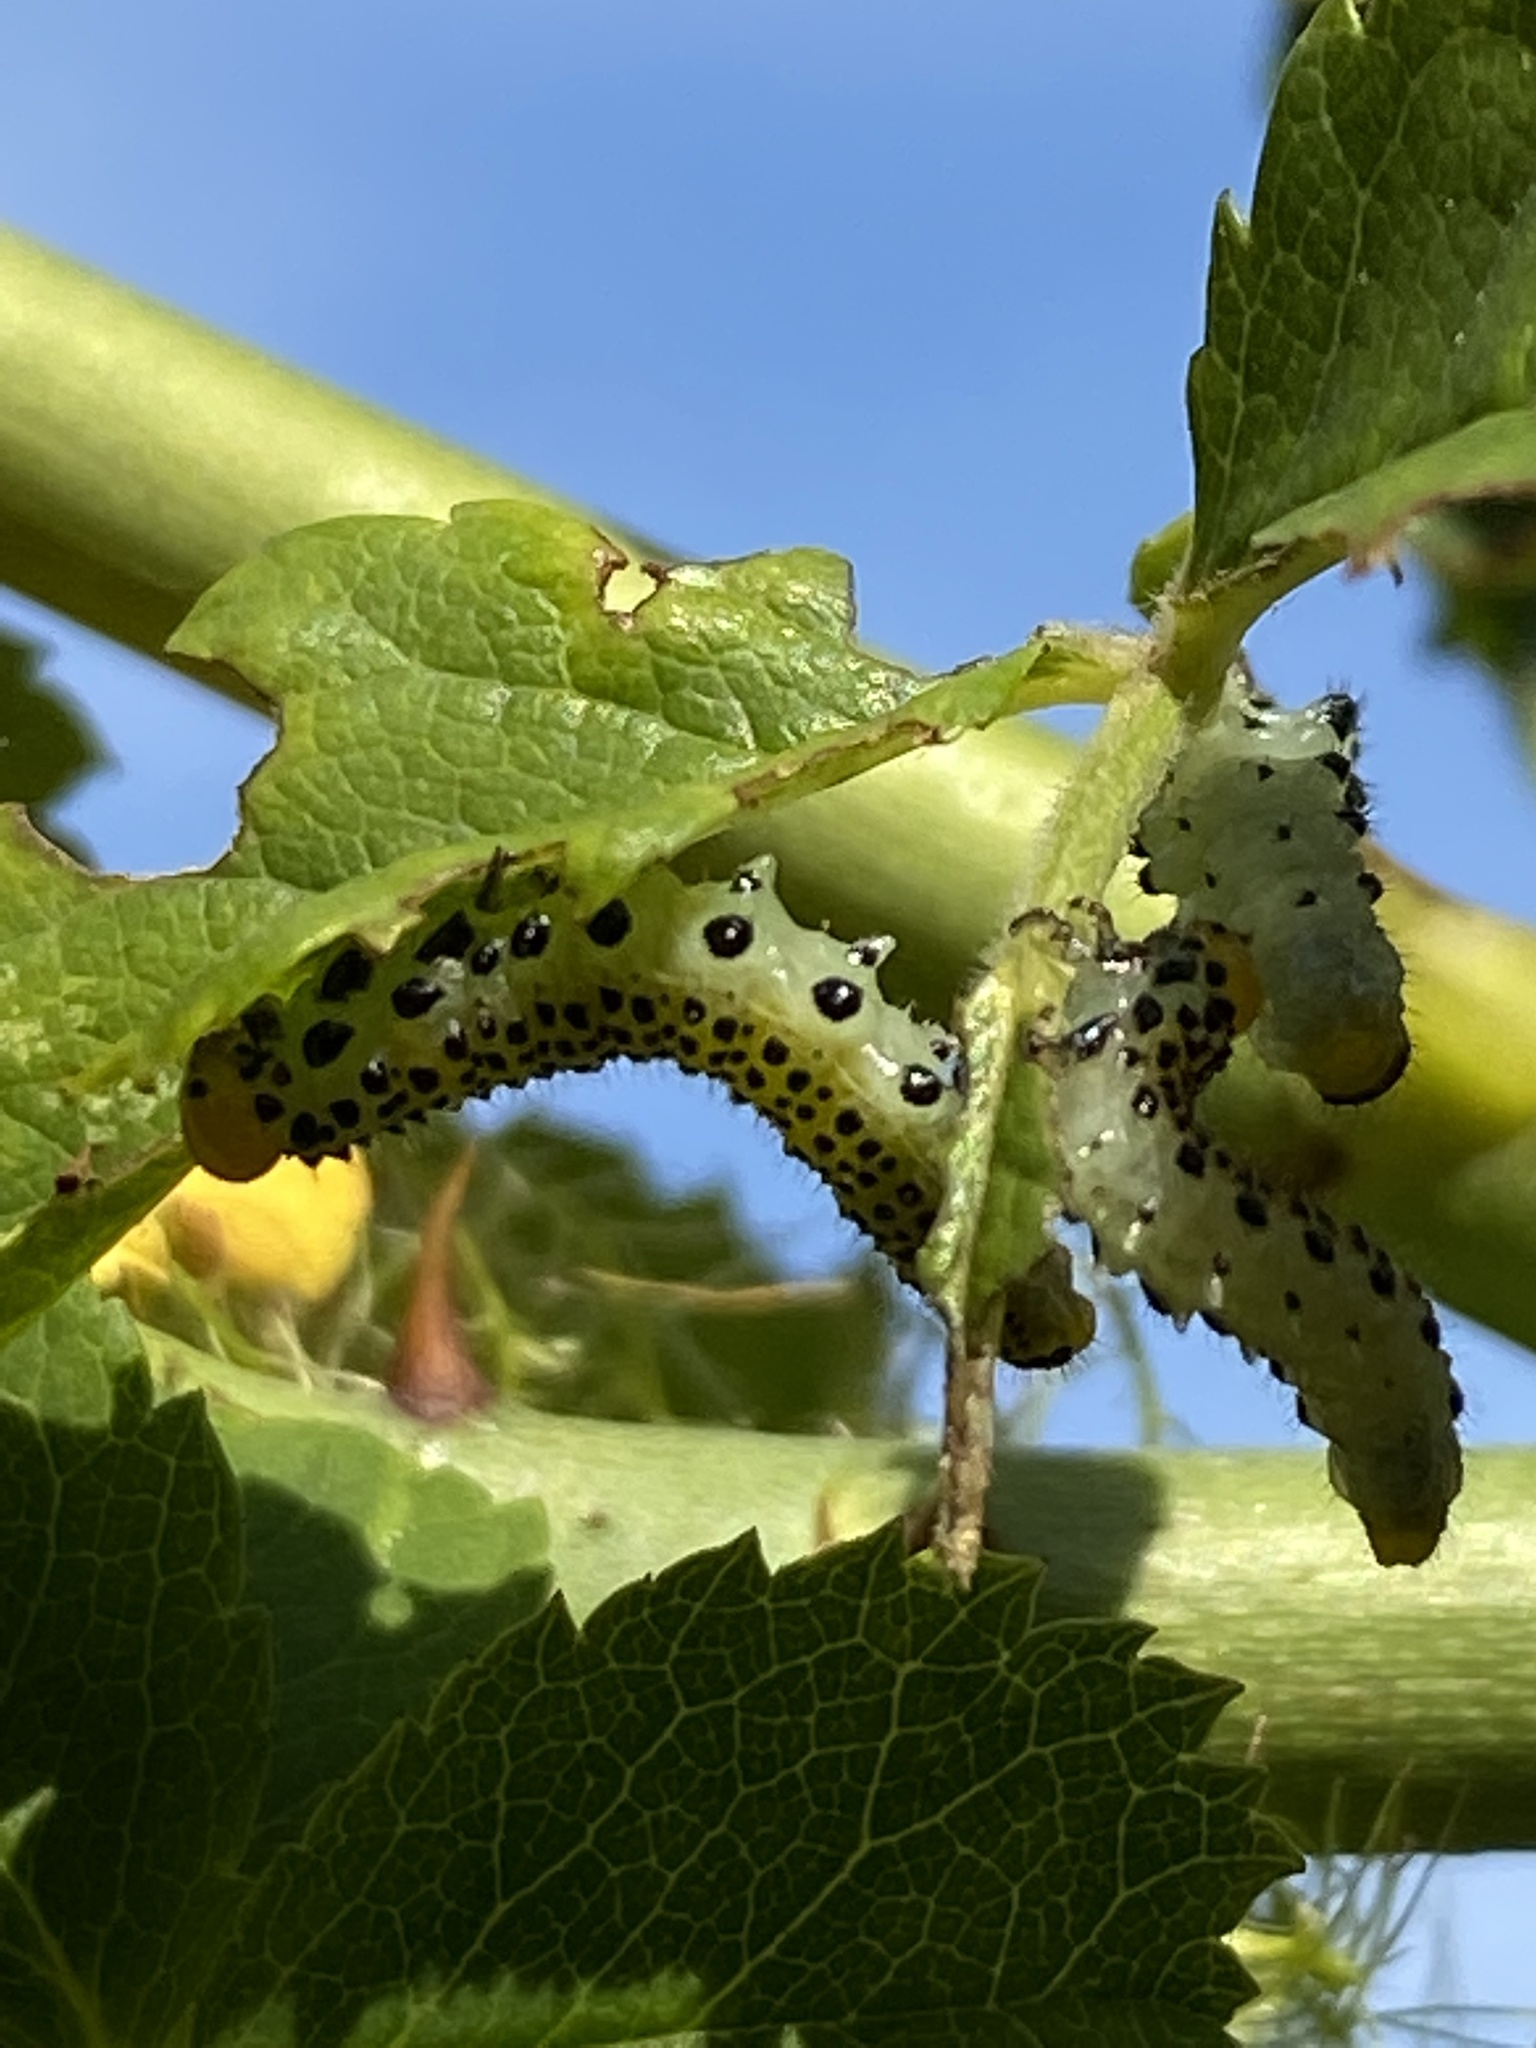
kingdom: Animalia
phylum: Arthropoda
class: Insecta
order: Hymenoptera
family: Argidae
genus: Arge
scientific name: Arge pagana
